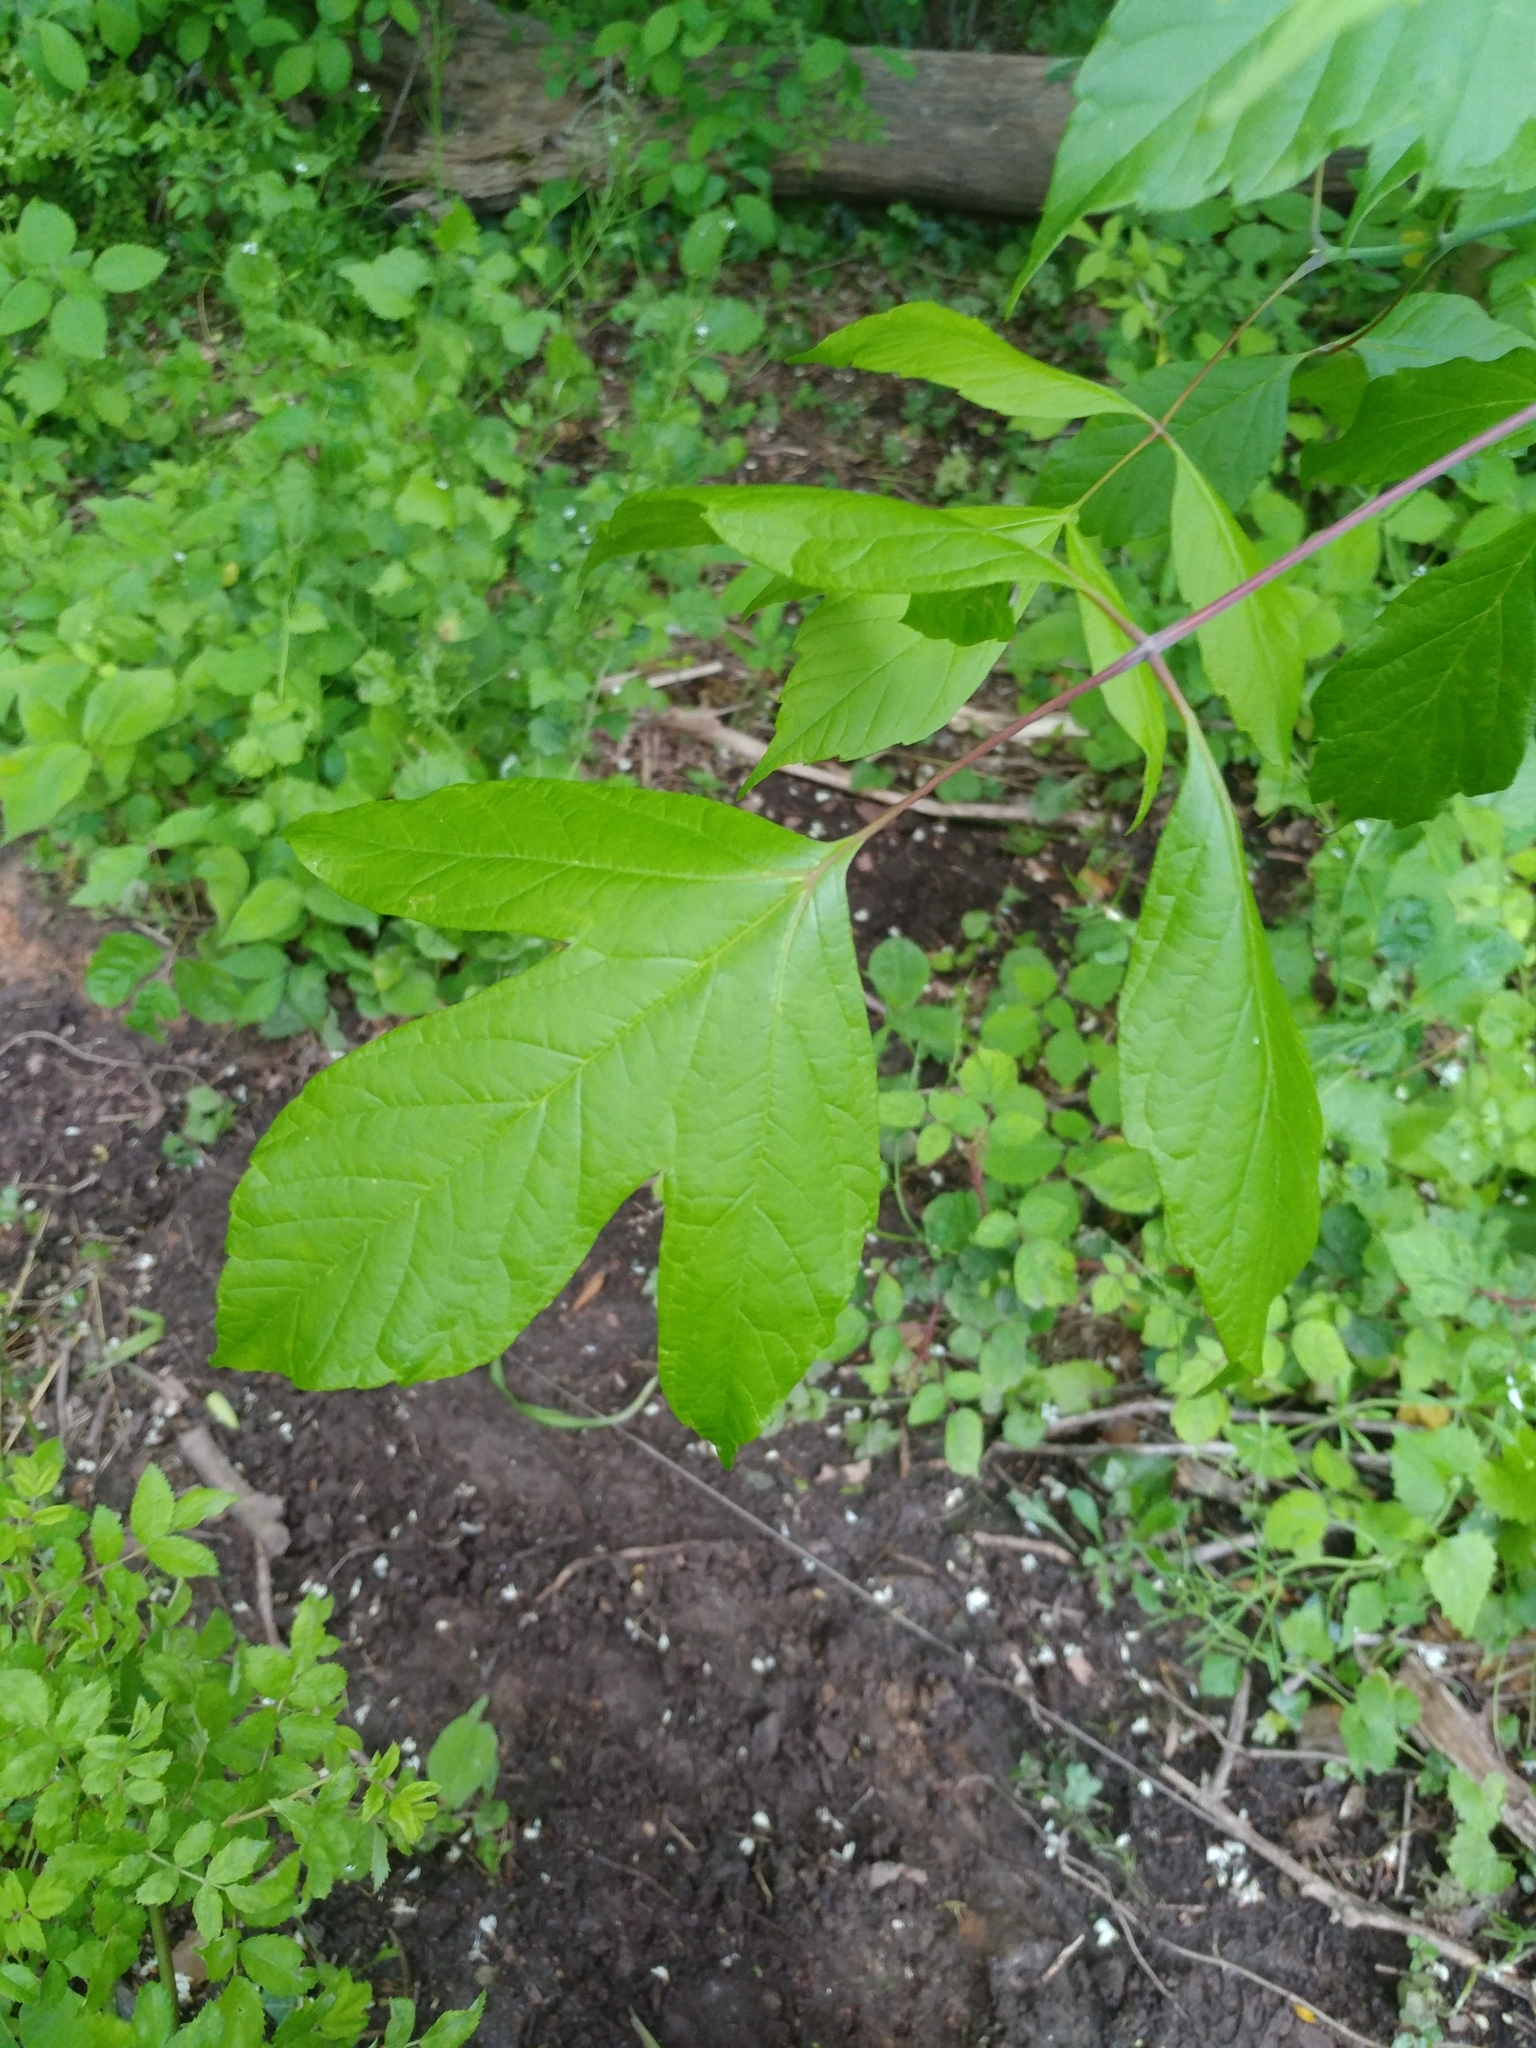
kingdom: Plantae
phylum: Tracheophyta
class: Magnoliopsida
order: Sapindales
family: Sapindaceae
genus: Acer
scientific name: Acer negundo
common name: Ashleaf maple
